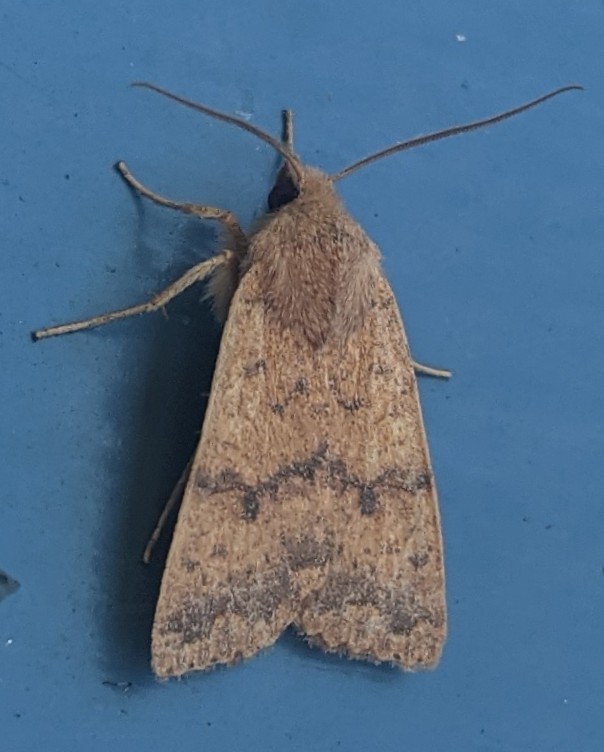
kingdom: Animalia
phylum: Arthropoda
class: Insecta
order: Lepidoptera
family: Noctuidae
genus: Agrochola
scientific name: Agrochola bicolorago
